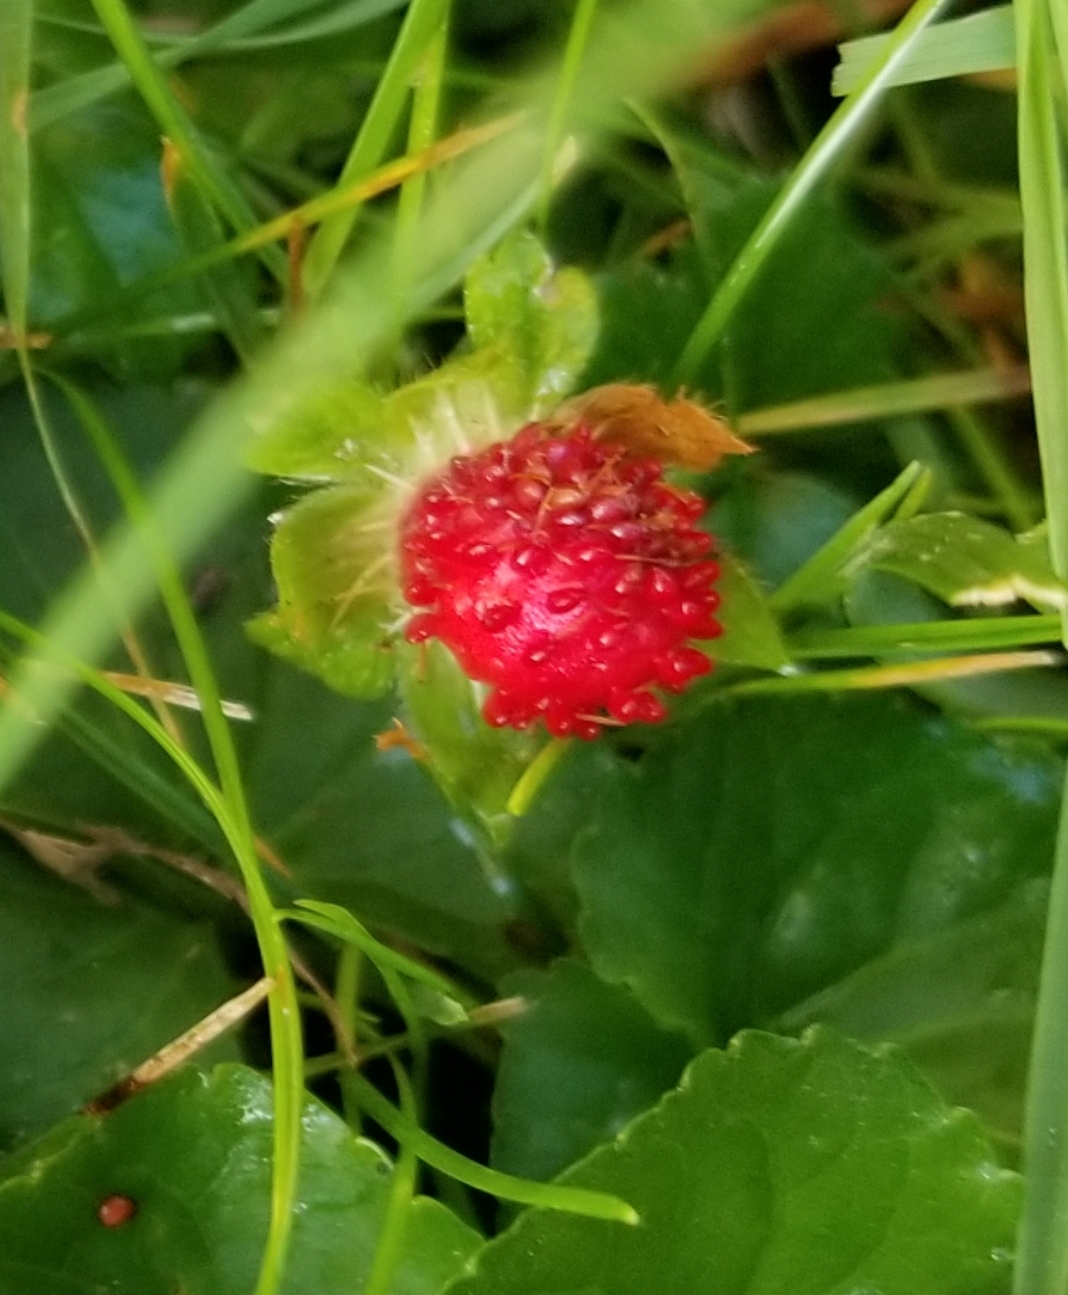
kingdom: Plantae
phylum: Tracheophyta
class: Magnoliopsida
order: Rosales
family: Rosaceae
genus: Potentilla
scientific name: Potentilla indica
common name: Yellow-flowered strawberry
